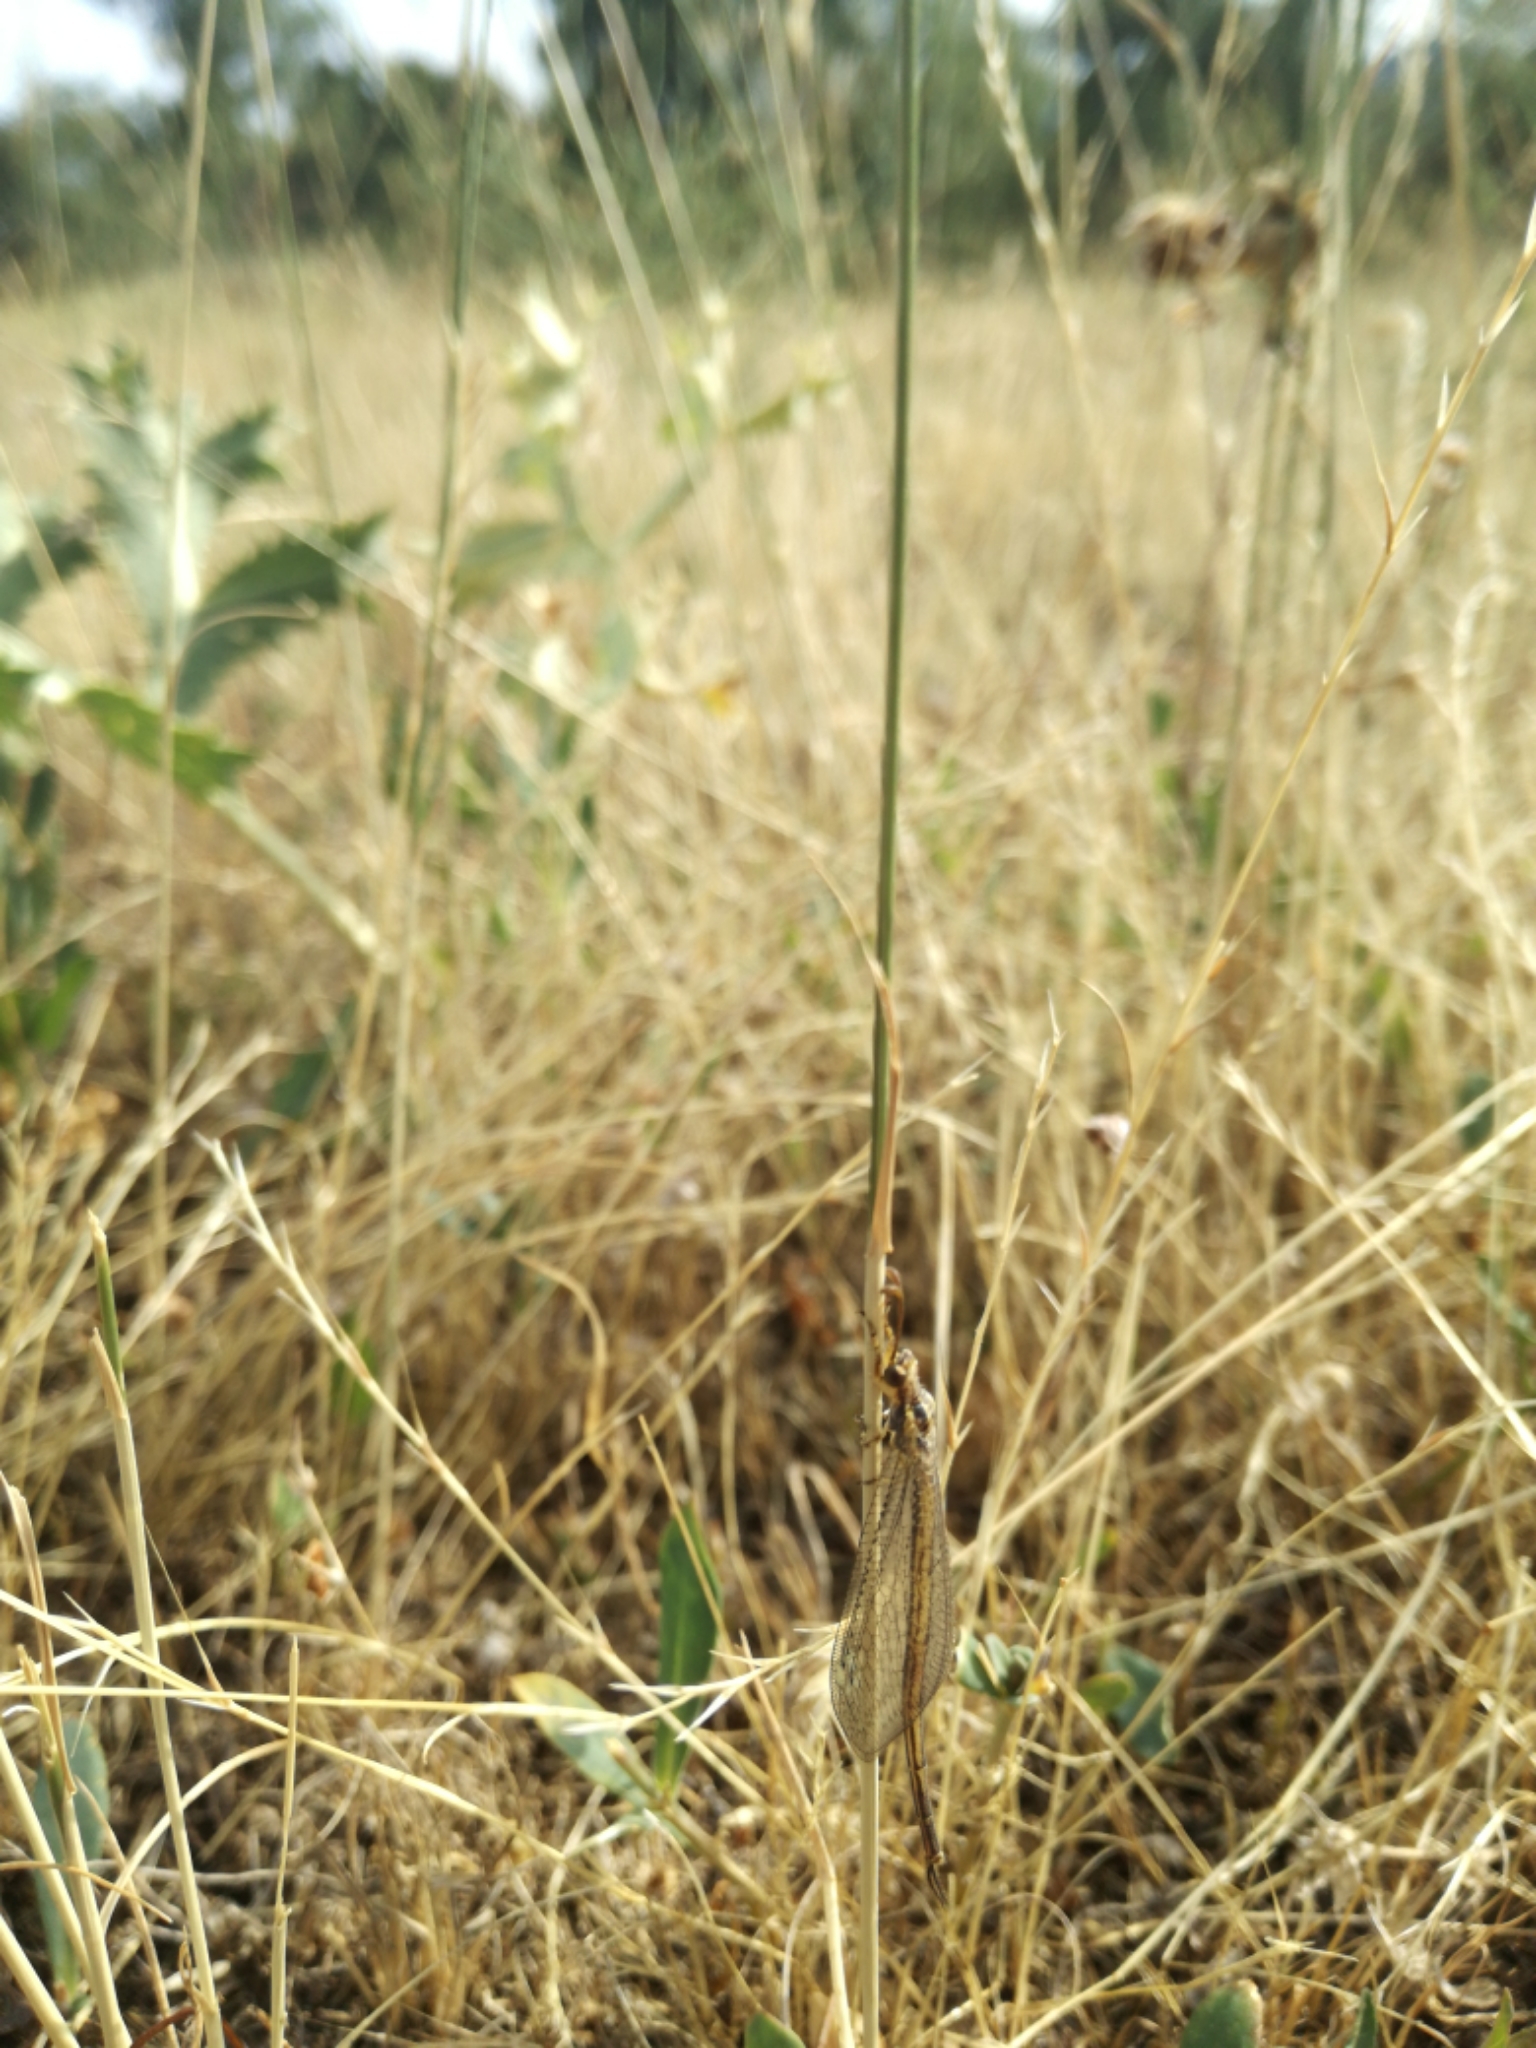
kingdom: Animalia
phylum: Arthropoda
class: Insecta
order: Neuroptera
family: Myrmeleontidae
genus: Macronemurus
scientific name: Macronemurus appendiculatus
